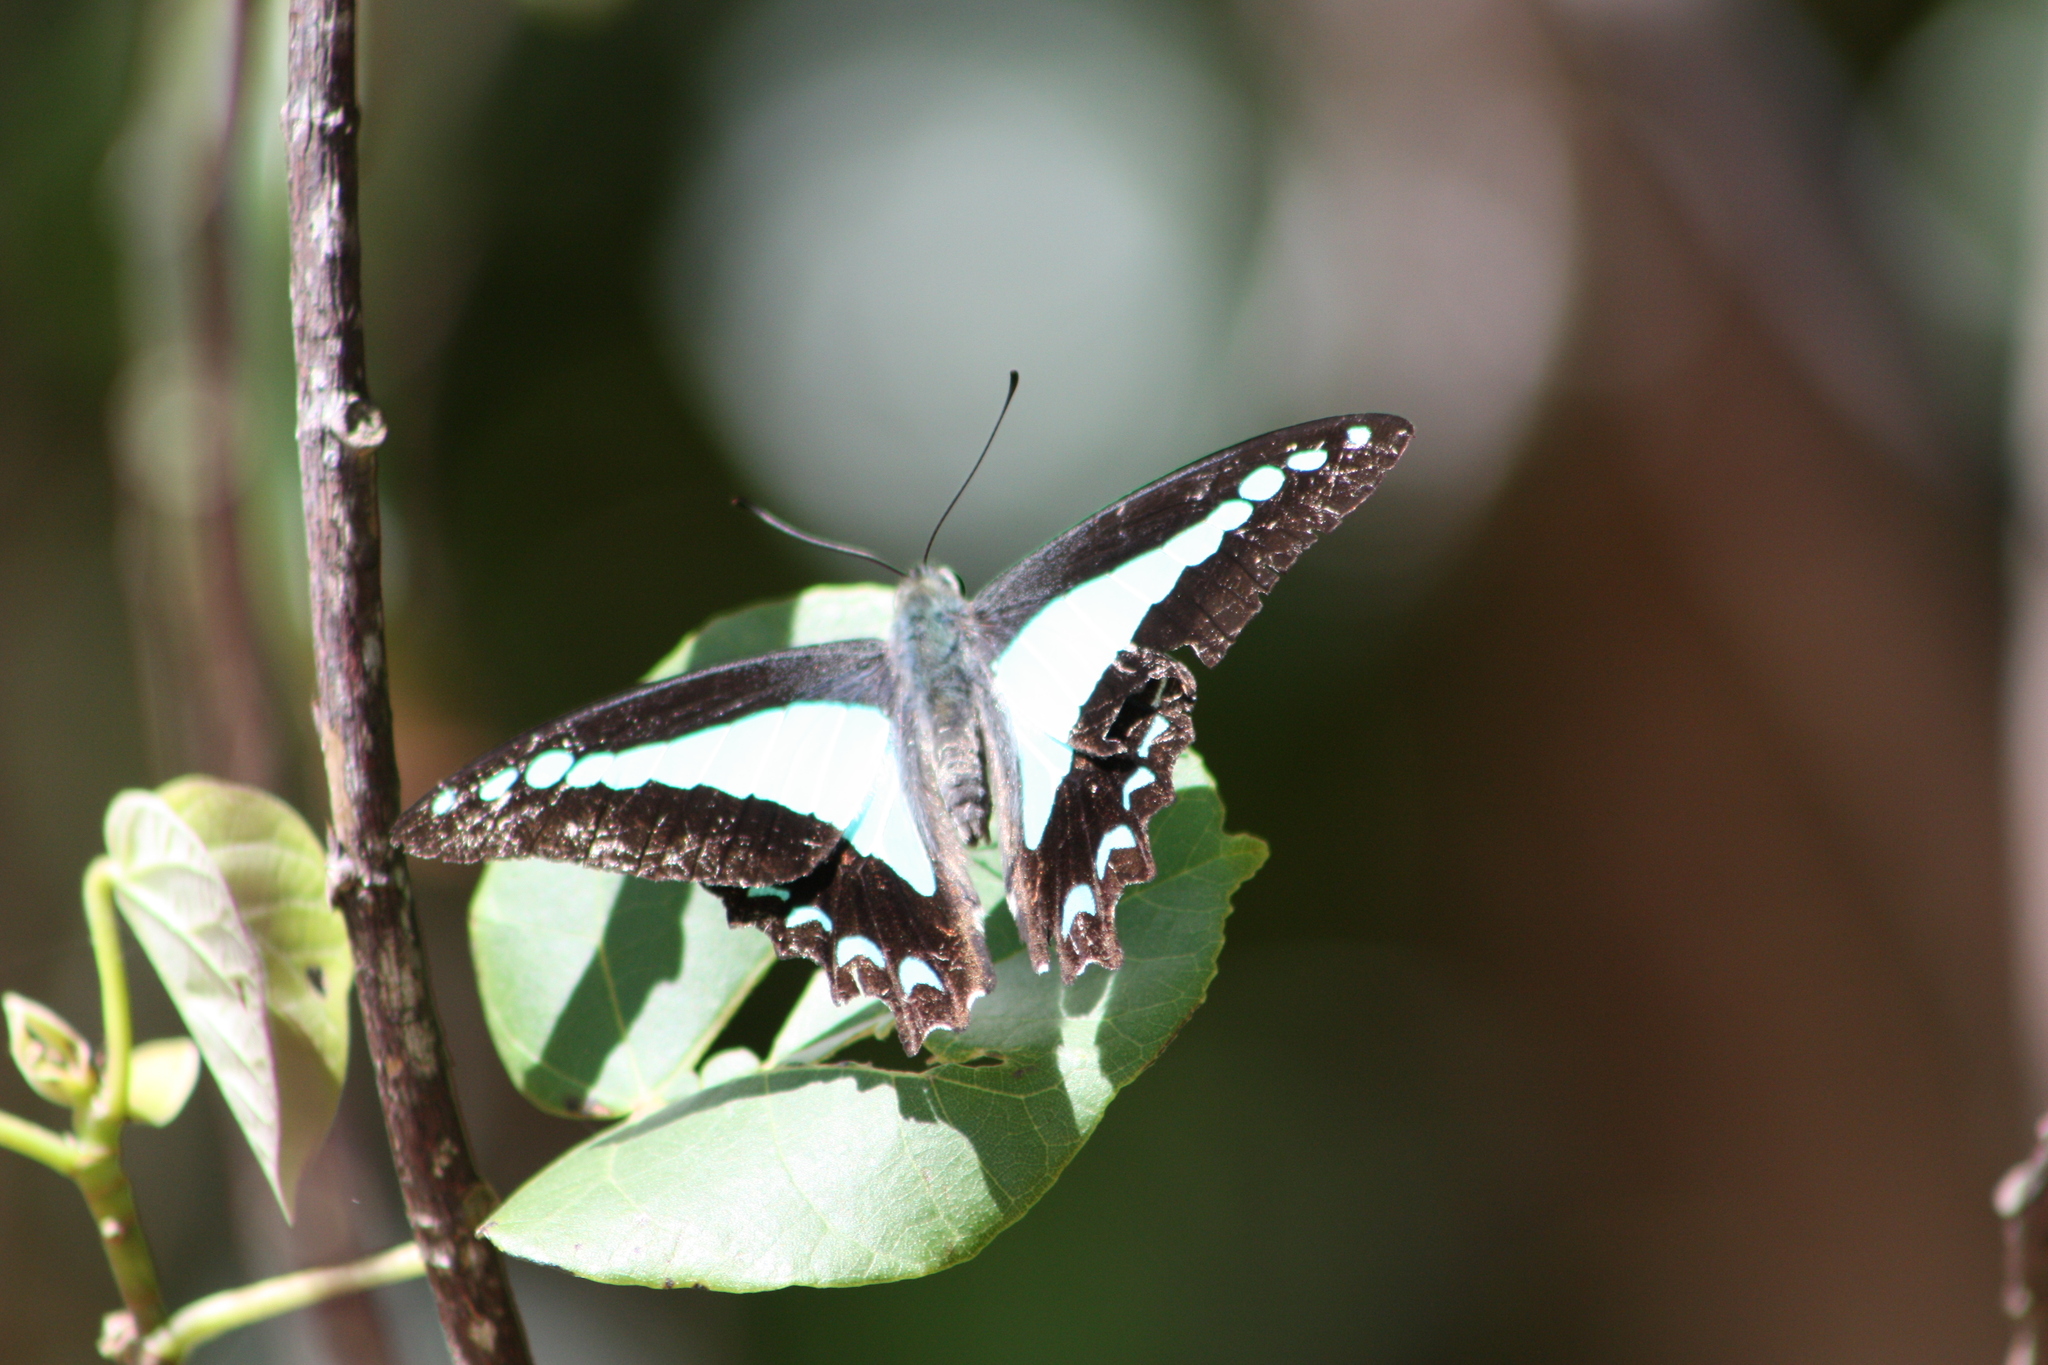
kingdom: Animalia
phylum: Arthropoda
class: Insecta
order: Lepidoptera
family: Papilionidae
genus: Graphium
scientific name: Graphium
